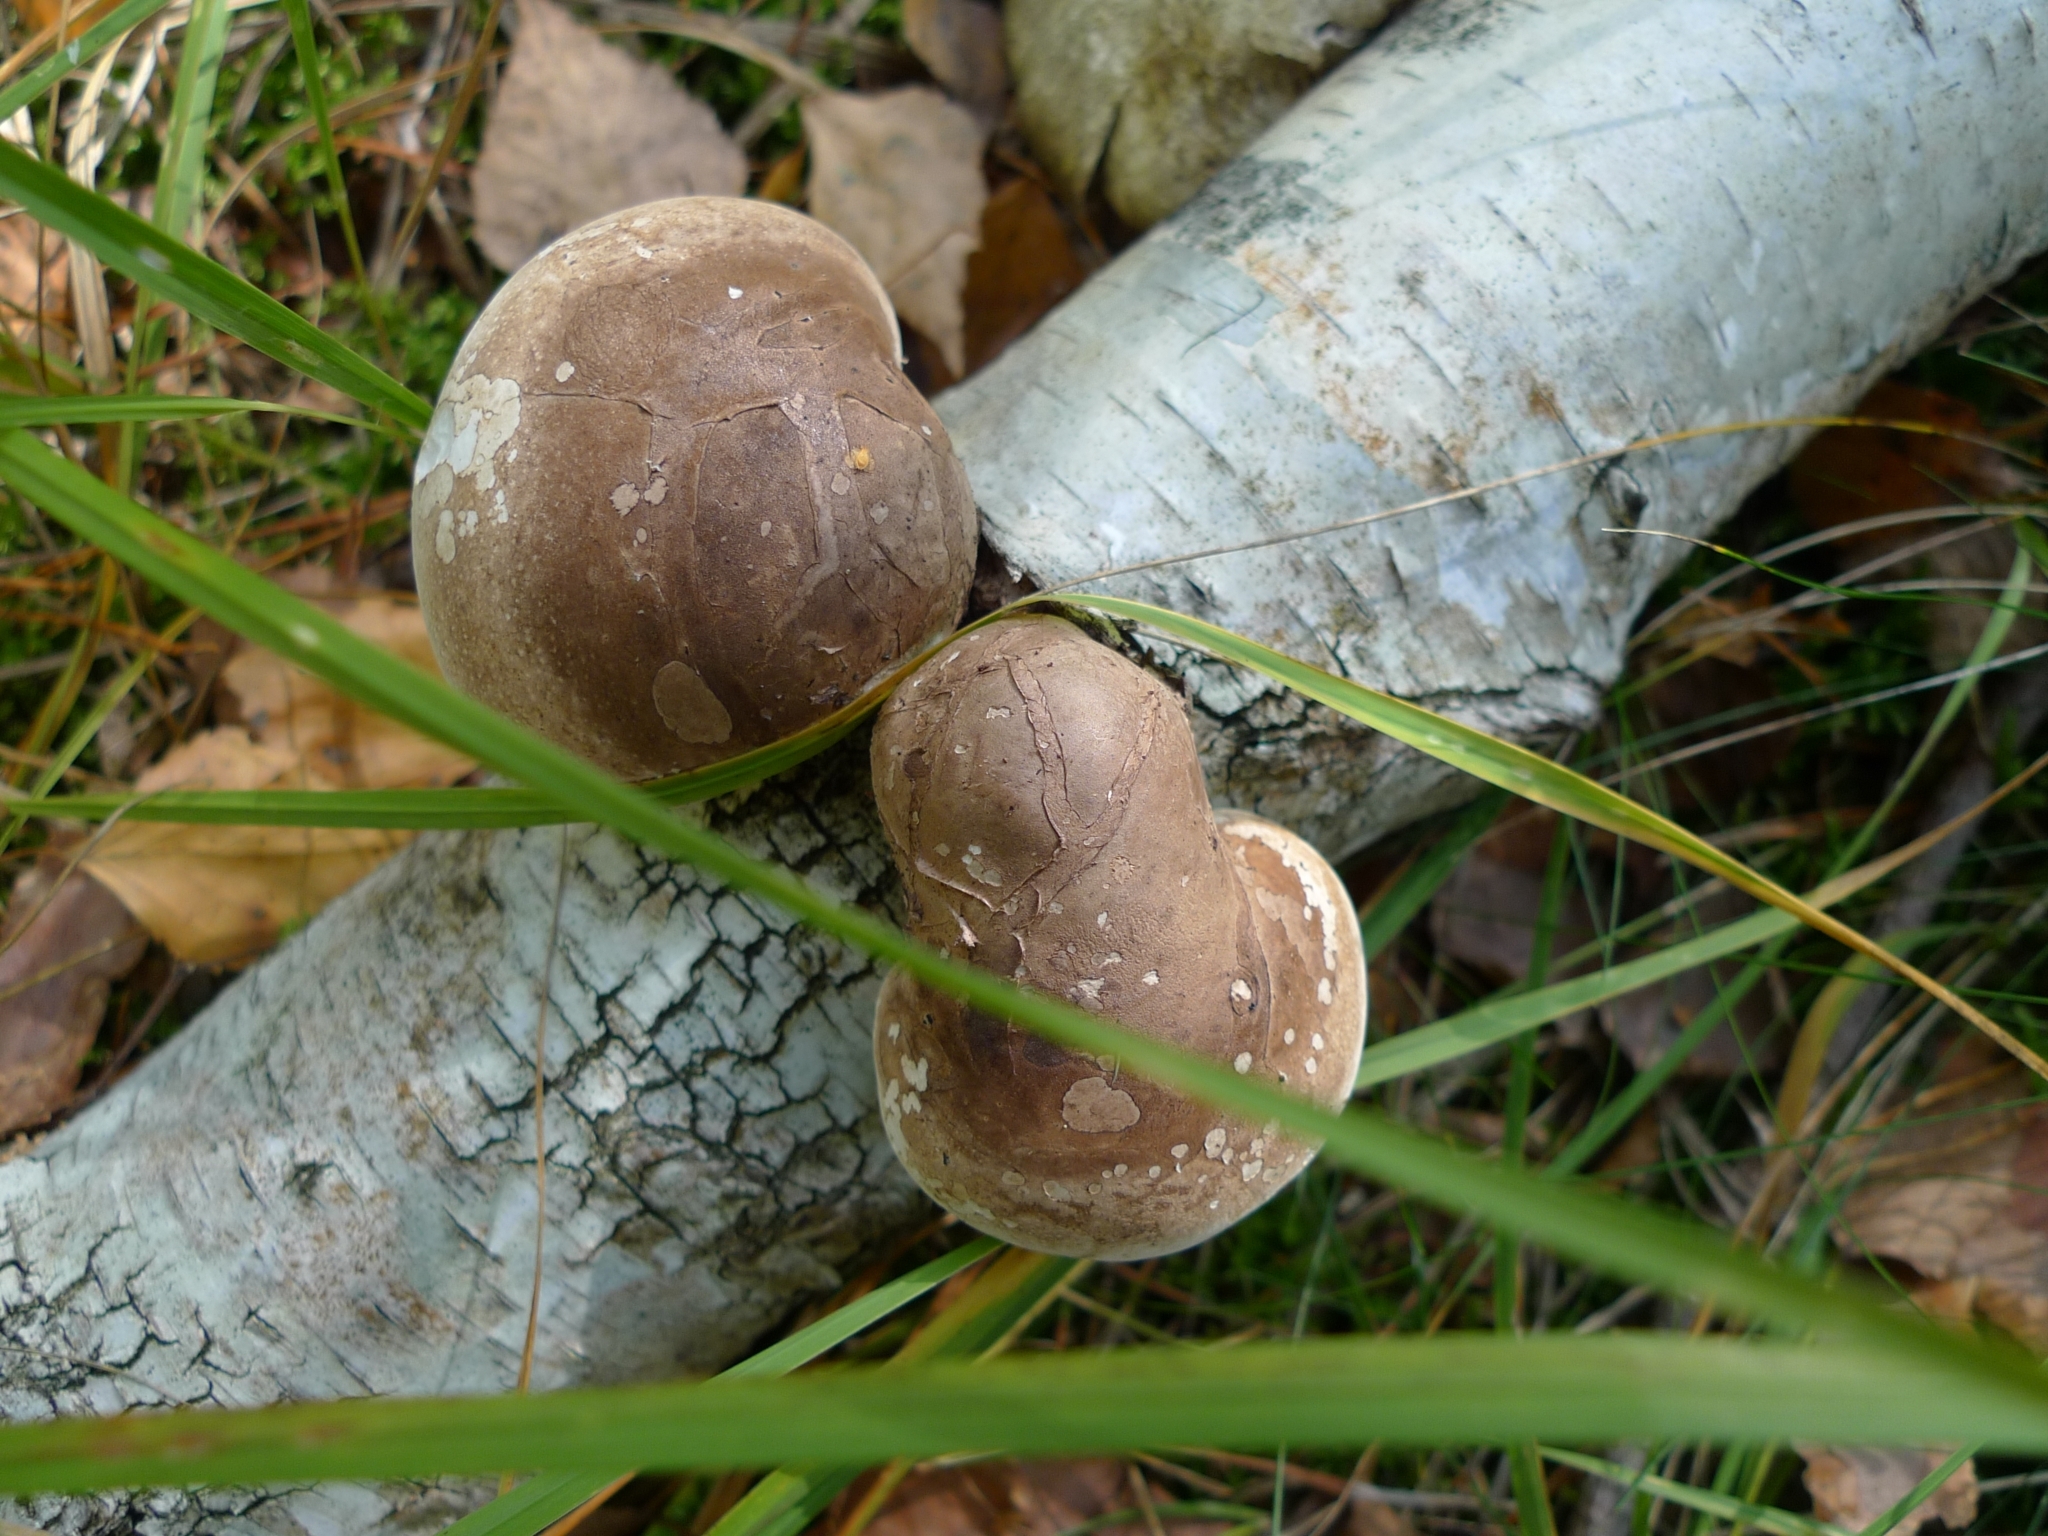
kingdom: Fungi
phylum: Basidiomycota
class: Agaricomycetes
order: Polyporales
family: Fomitopsidaceae
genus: Fomitopsis
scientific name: Fomitopsis betulina
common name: Birch polypore
